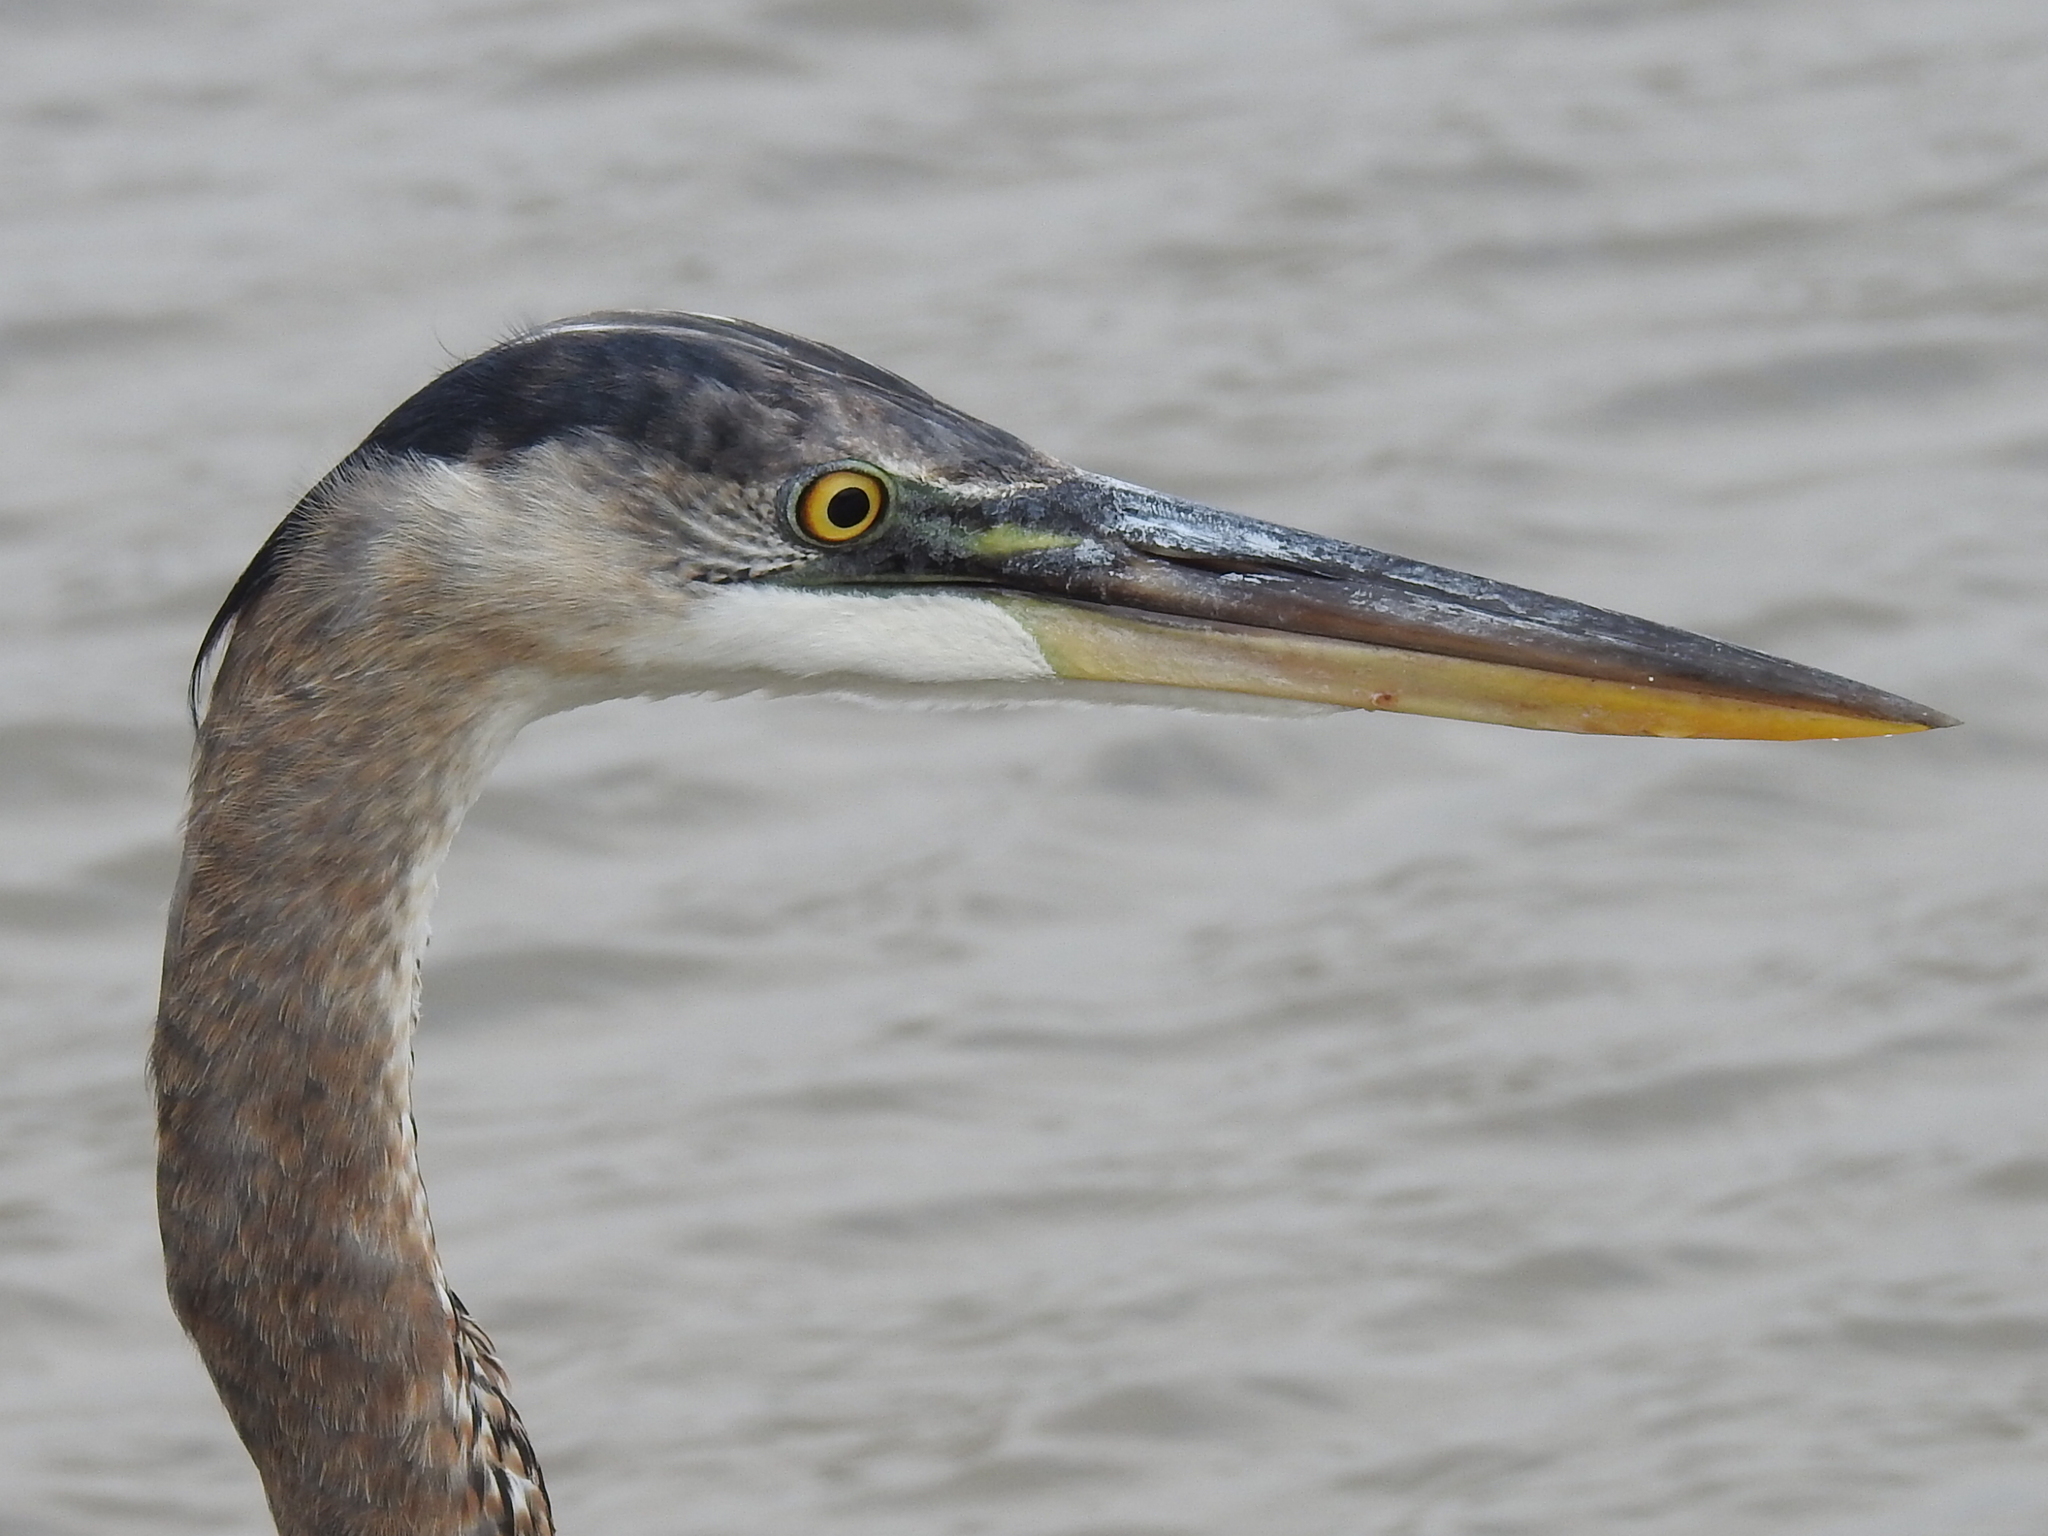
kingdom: Animalia
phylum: Chordata
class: Aves
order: Pelecaniformes
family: Ardeidae
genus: Ardea
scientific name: Ardea herodias
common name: Great blue heron
